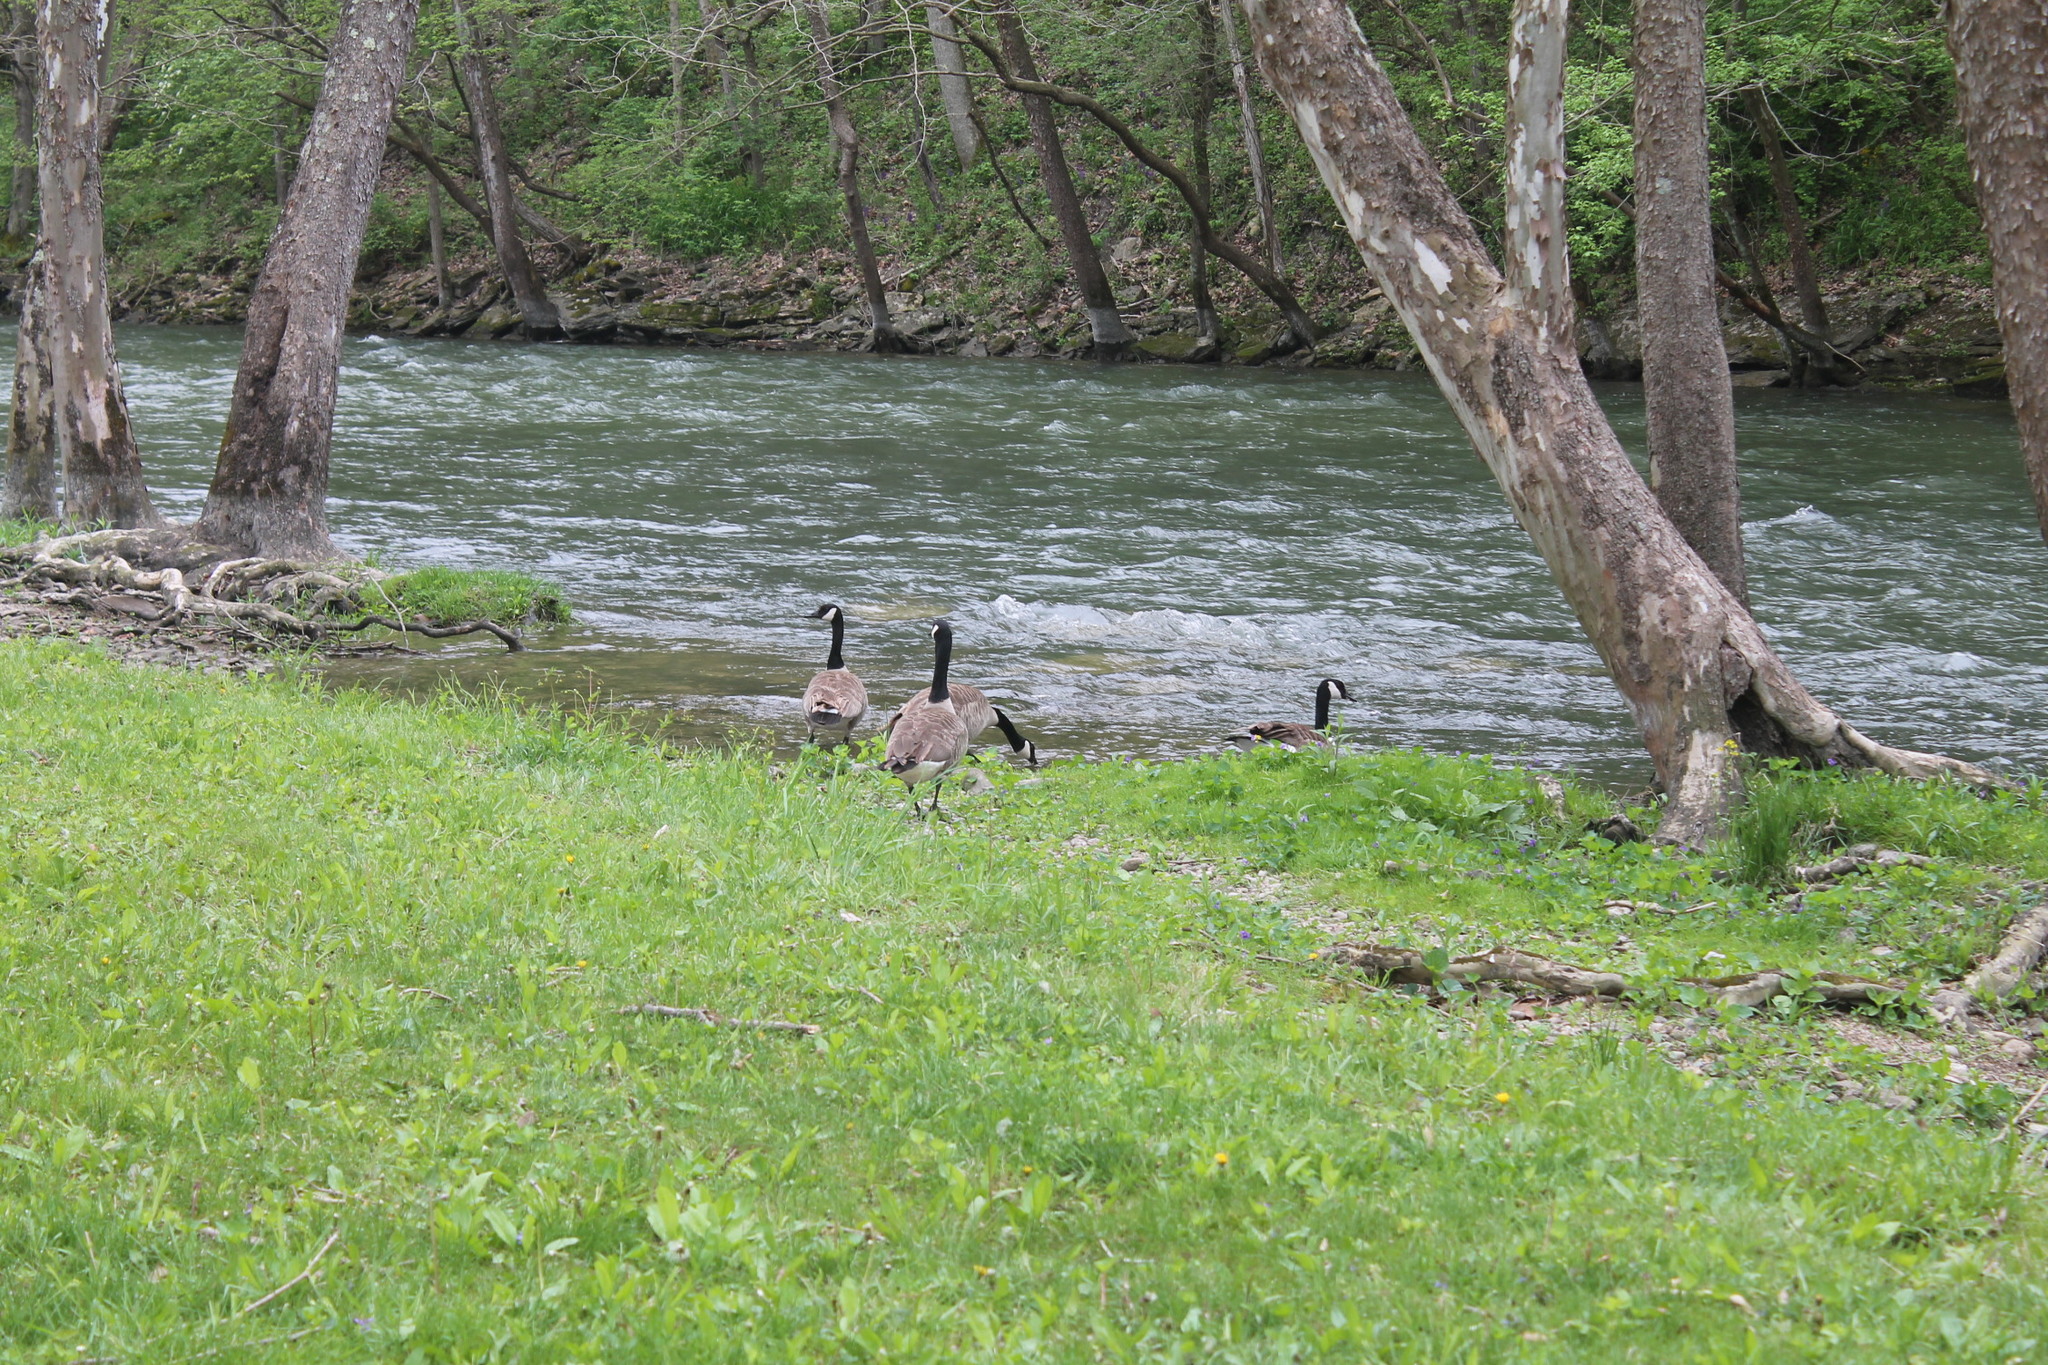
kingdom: Animalia
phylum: Chordata
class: Aves
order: Anseriformes
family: Anatidae
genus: Branta
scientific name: Branta canadensis
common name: Canada goose
